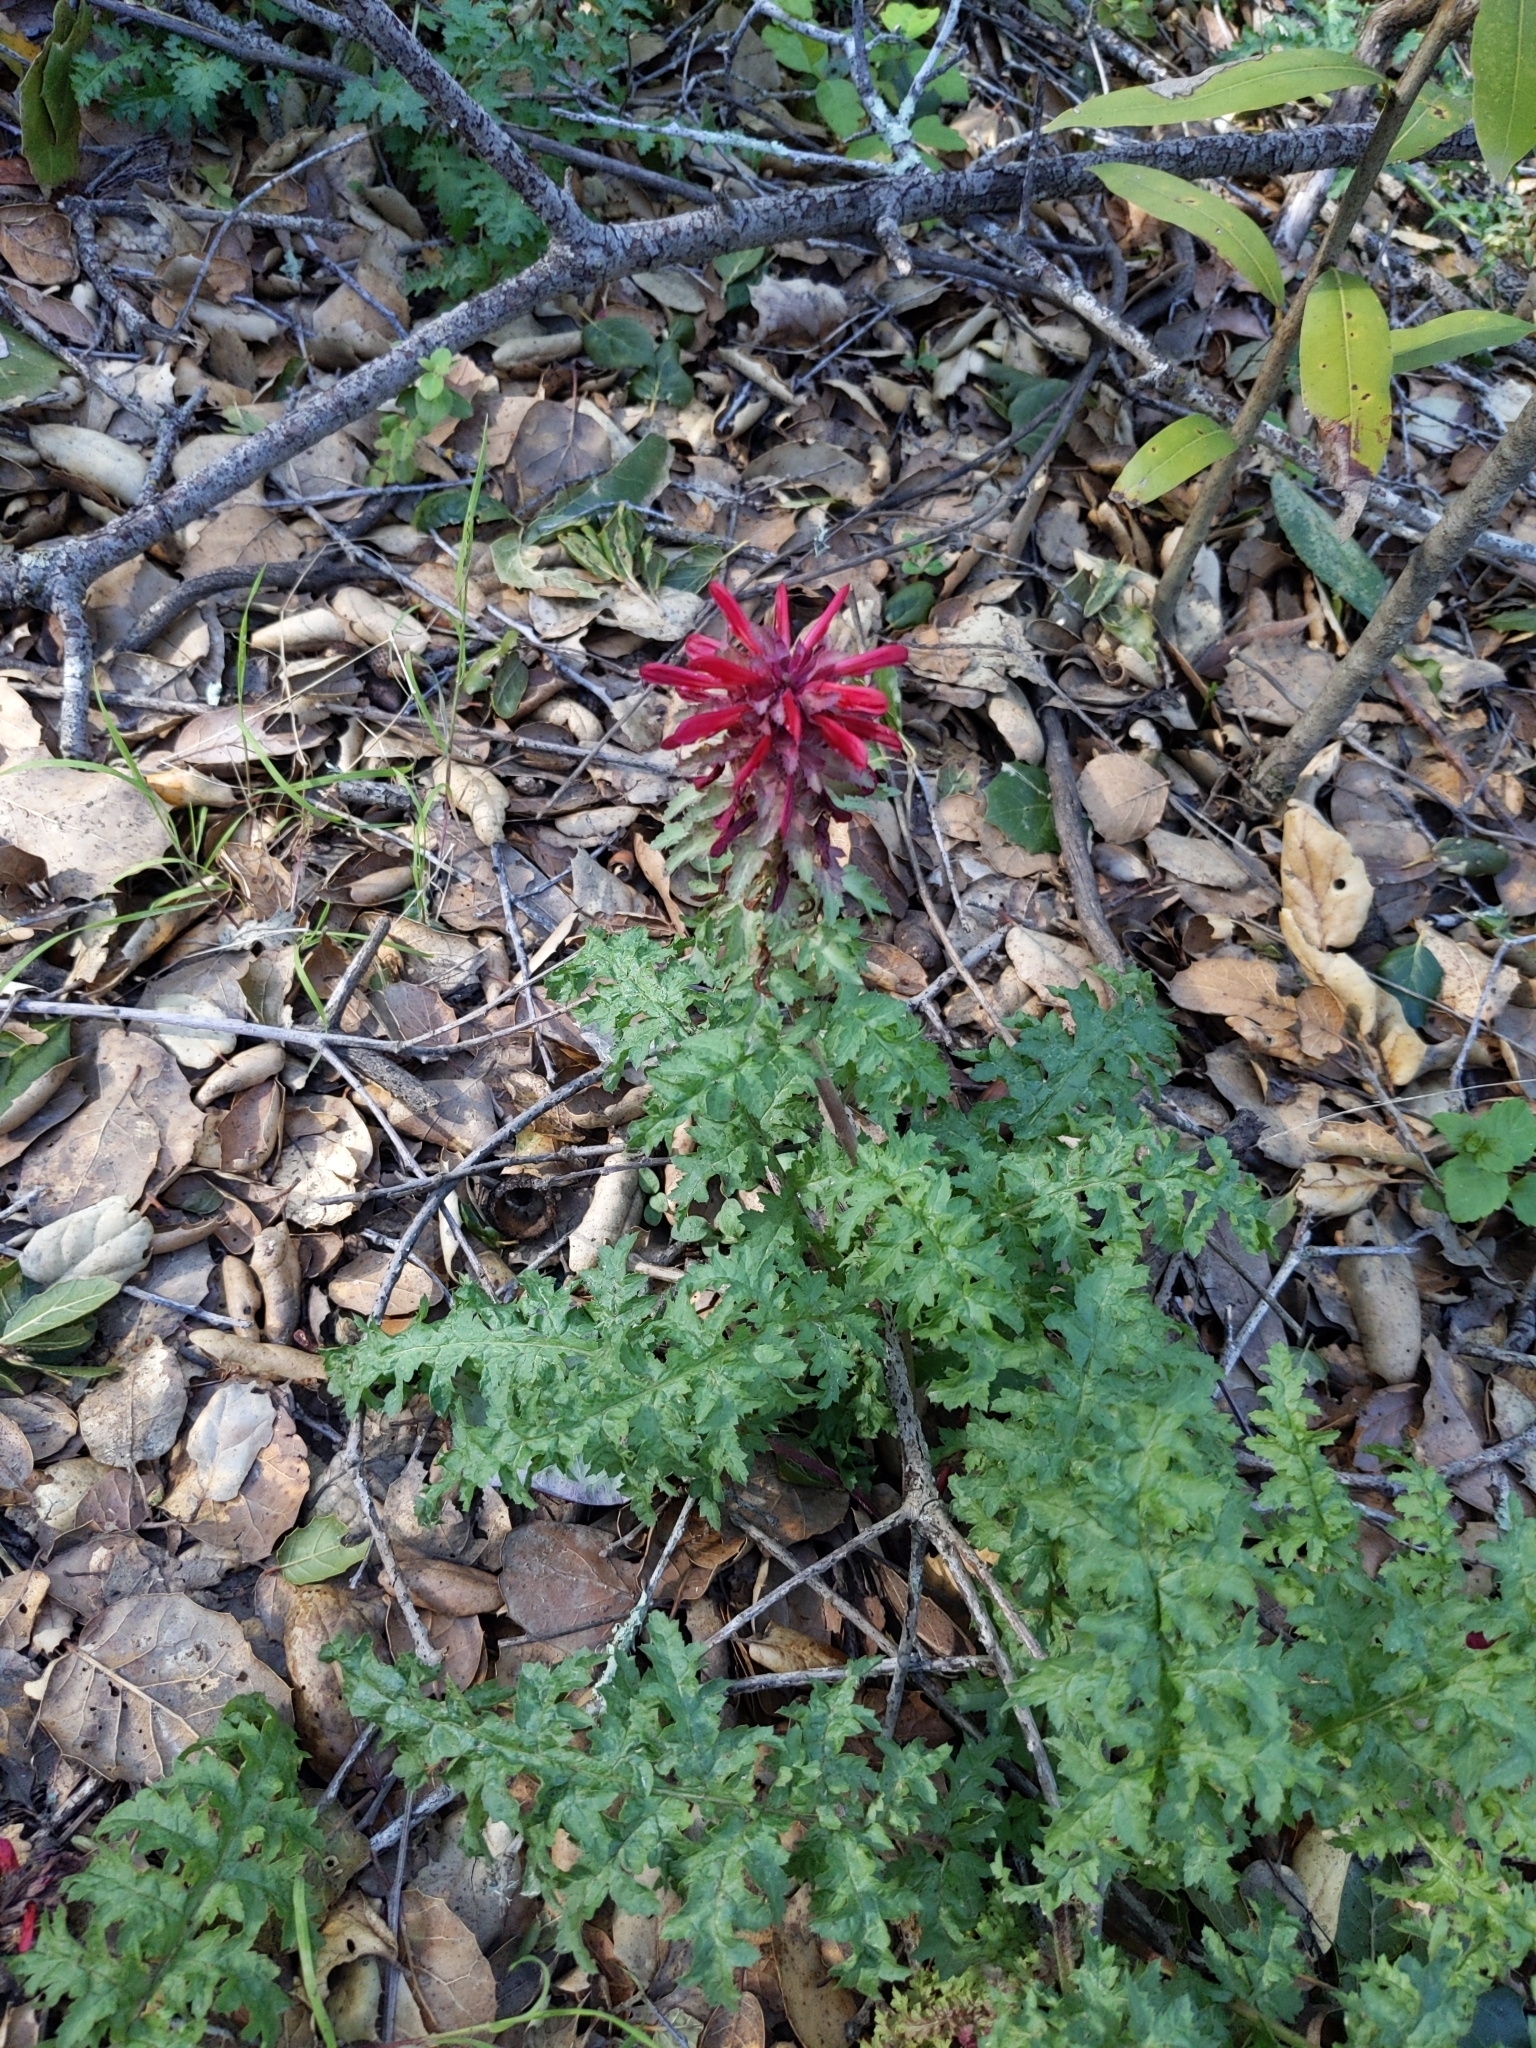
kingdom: Plantae
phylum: Tracheophyta
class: Magnoliopsida
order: Lamiales
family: Orobanchaceae
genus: Pedicularis
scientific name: Pedicularis densiflora
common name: Indian warrior
